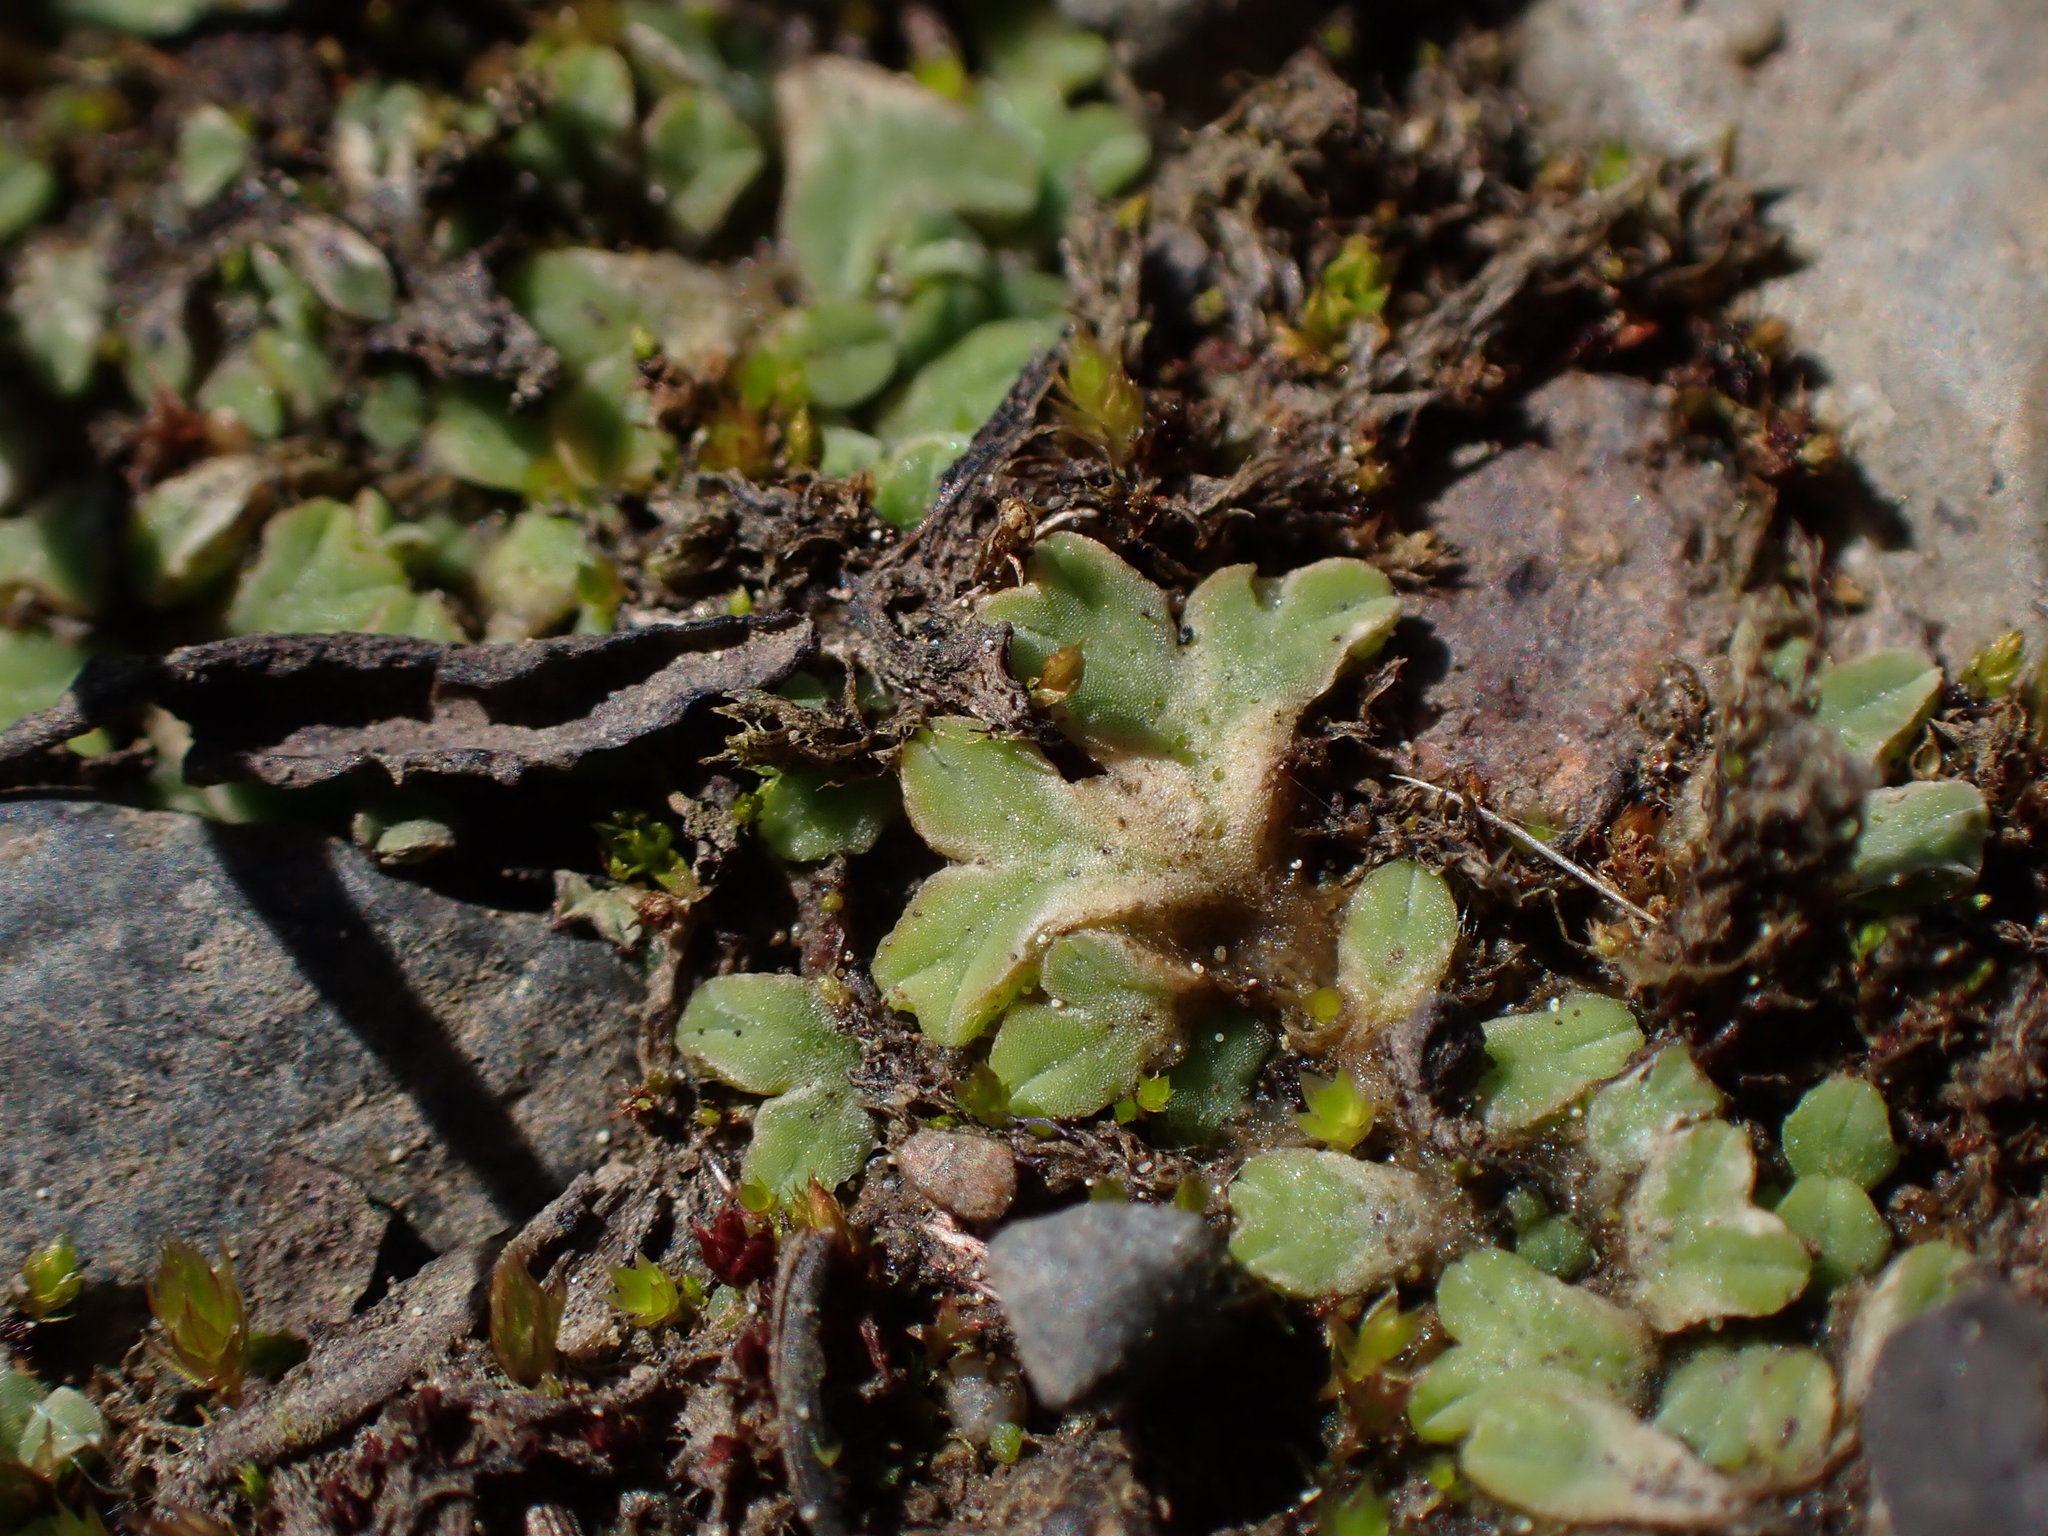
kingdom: Plantae
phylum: Marchantiophyta
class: Marchantiopsida
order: Marchantiales
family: Ricciaceae
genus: Riccia
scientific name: Riccia sorocarpa
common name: Common crystalwort
